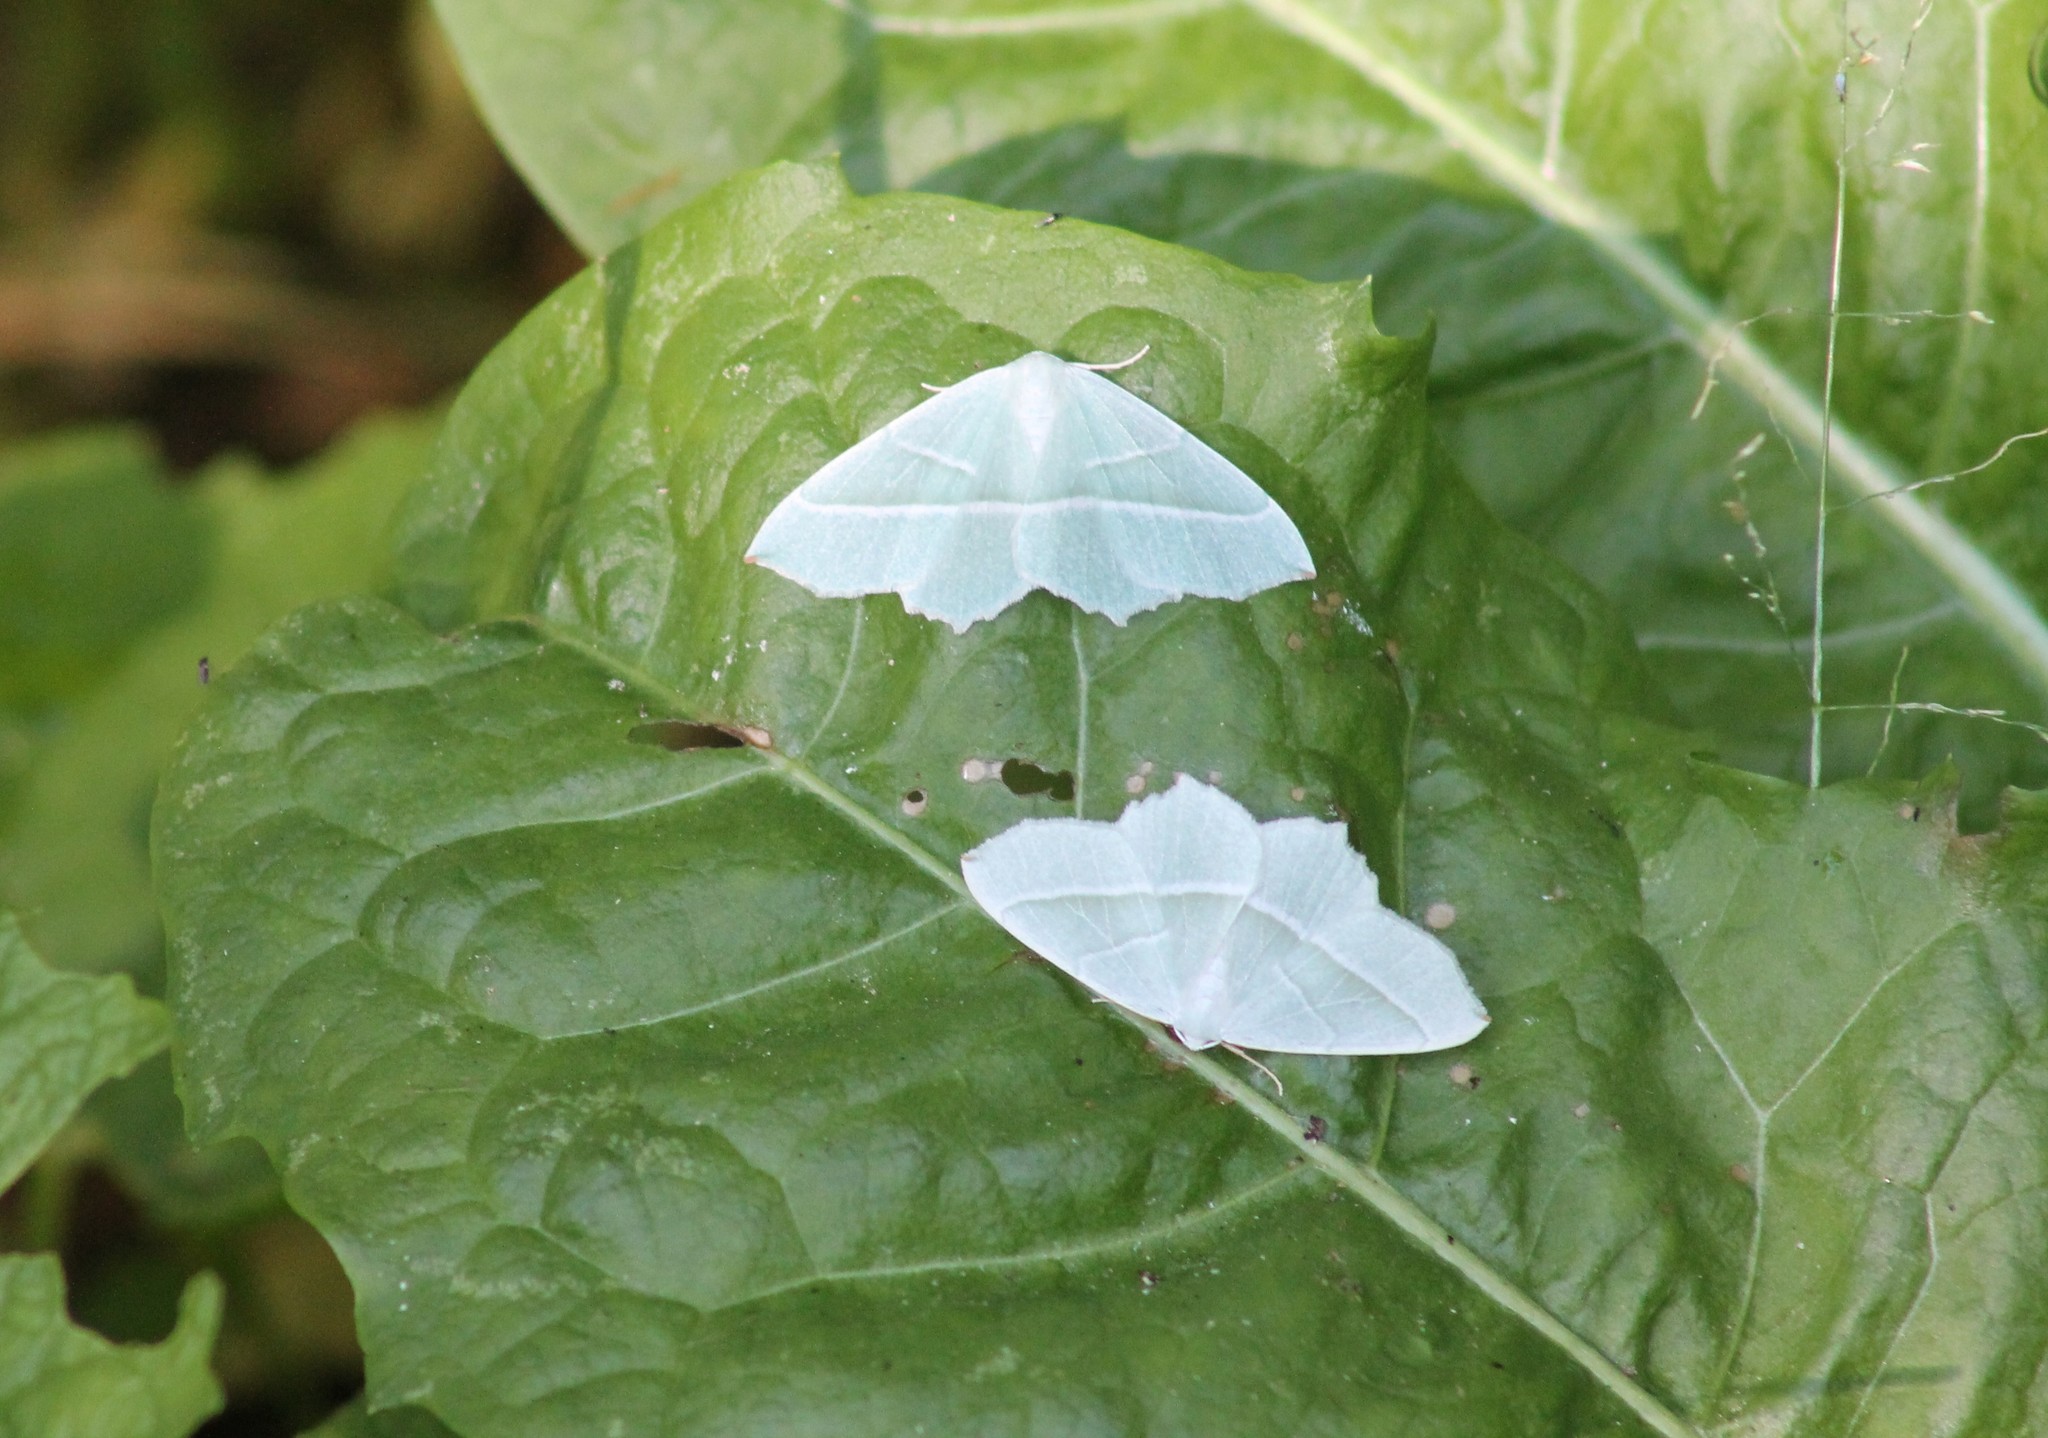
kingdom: Animalia
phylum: Arthropoda
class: Insecta
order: Lepidoptera
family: Geometridae
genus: Campaea
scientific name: Campaea margaritaria
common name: Light emerald
